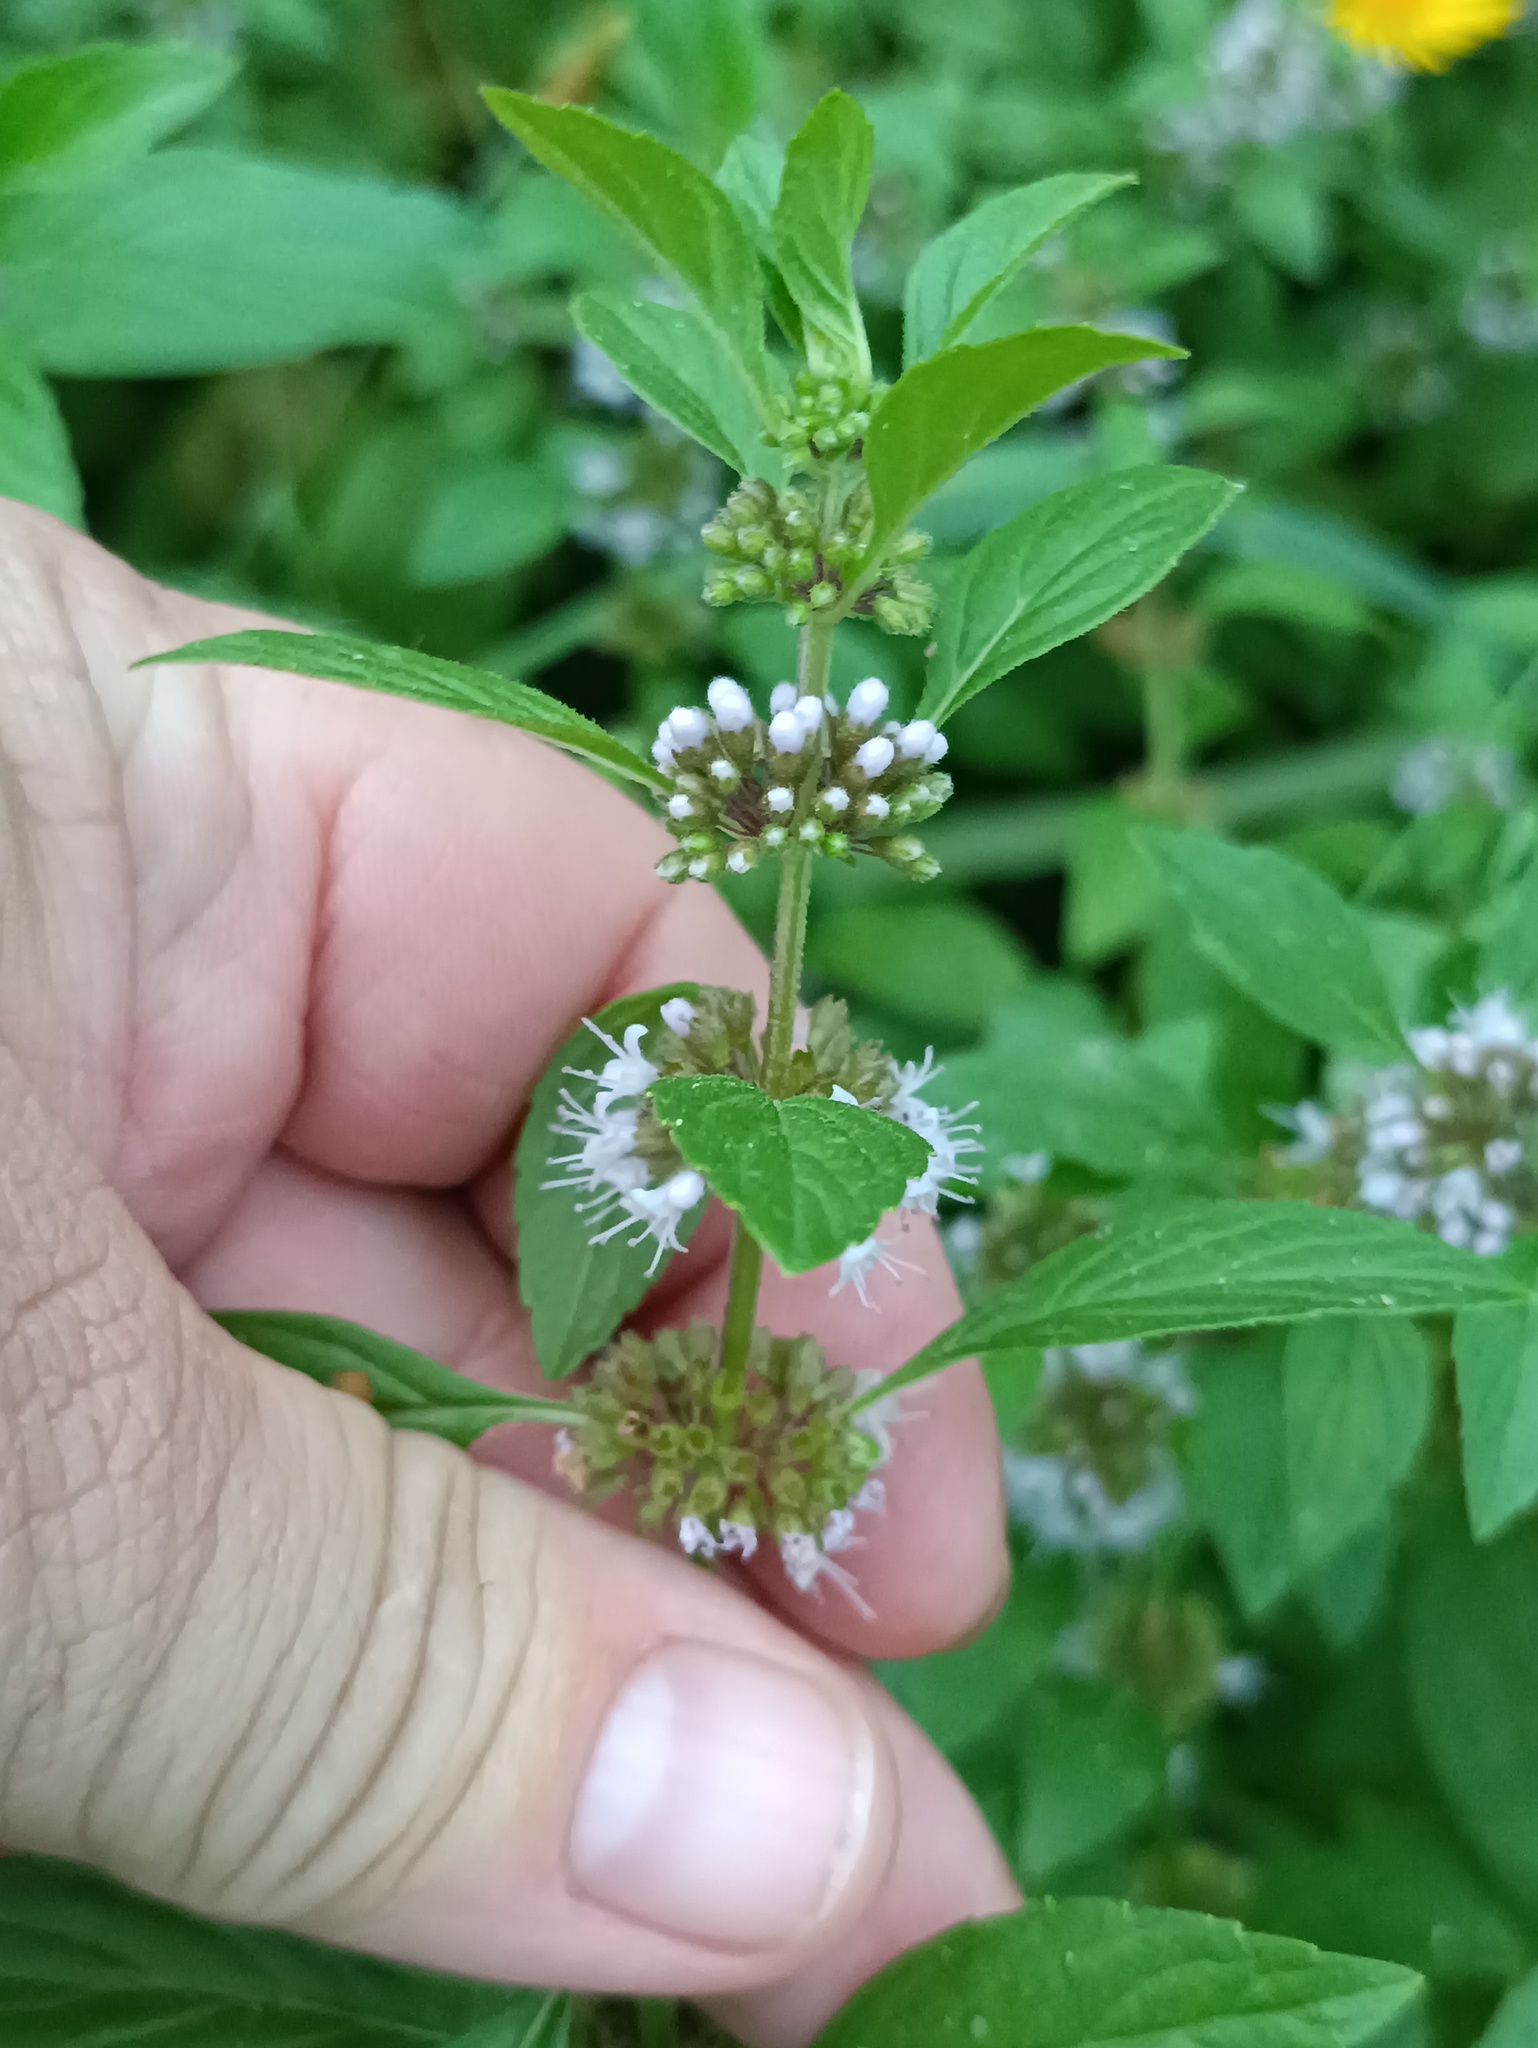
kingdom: Plantae
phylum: Tracheophyta
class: Magnoliopsida
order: Lamiales
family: Lamiaceae
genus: Mentha
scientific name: Mentha arvensis
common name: Corn mint
